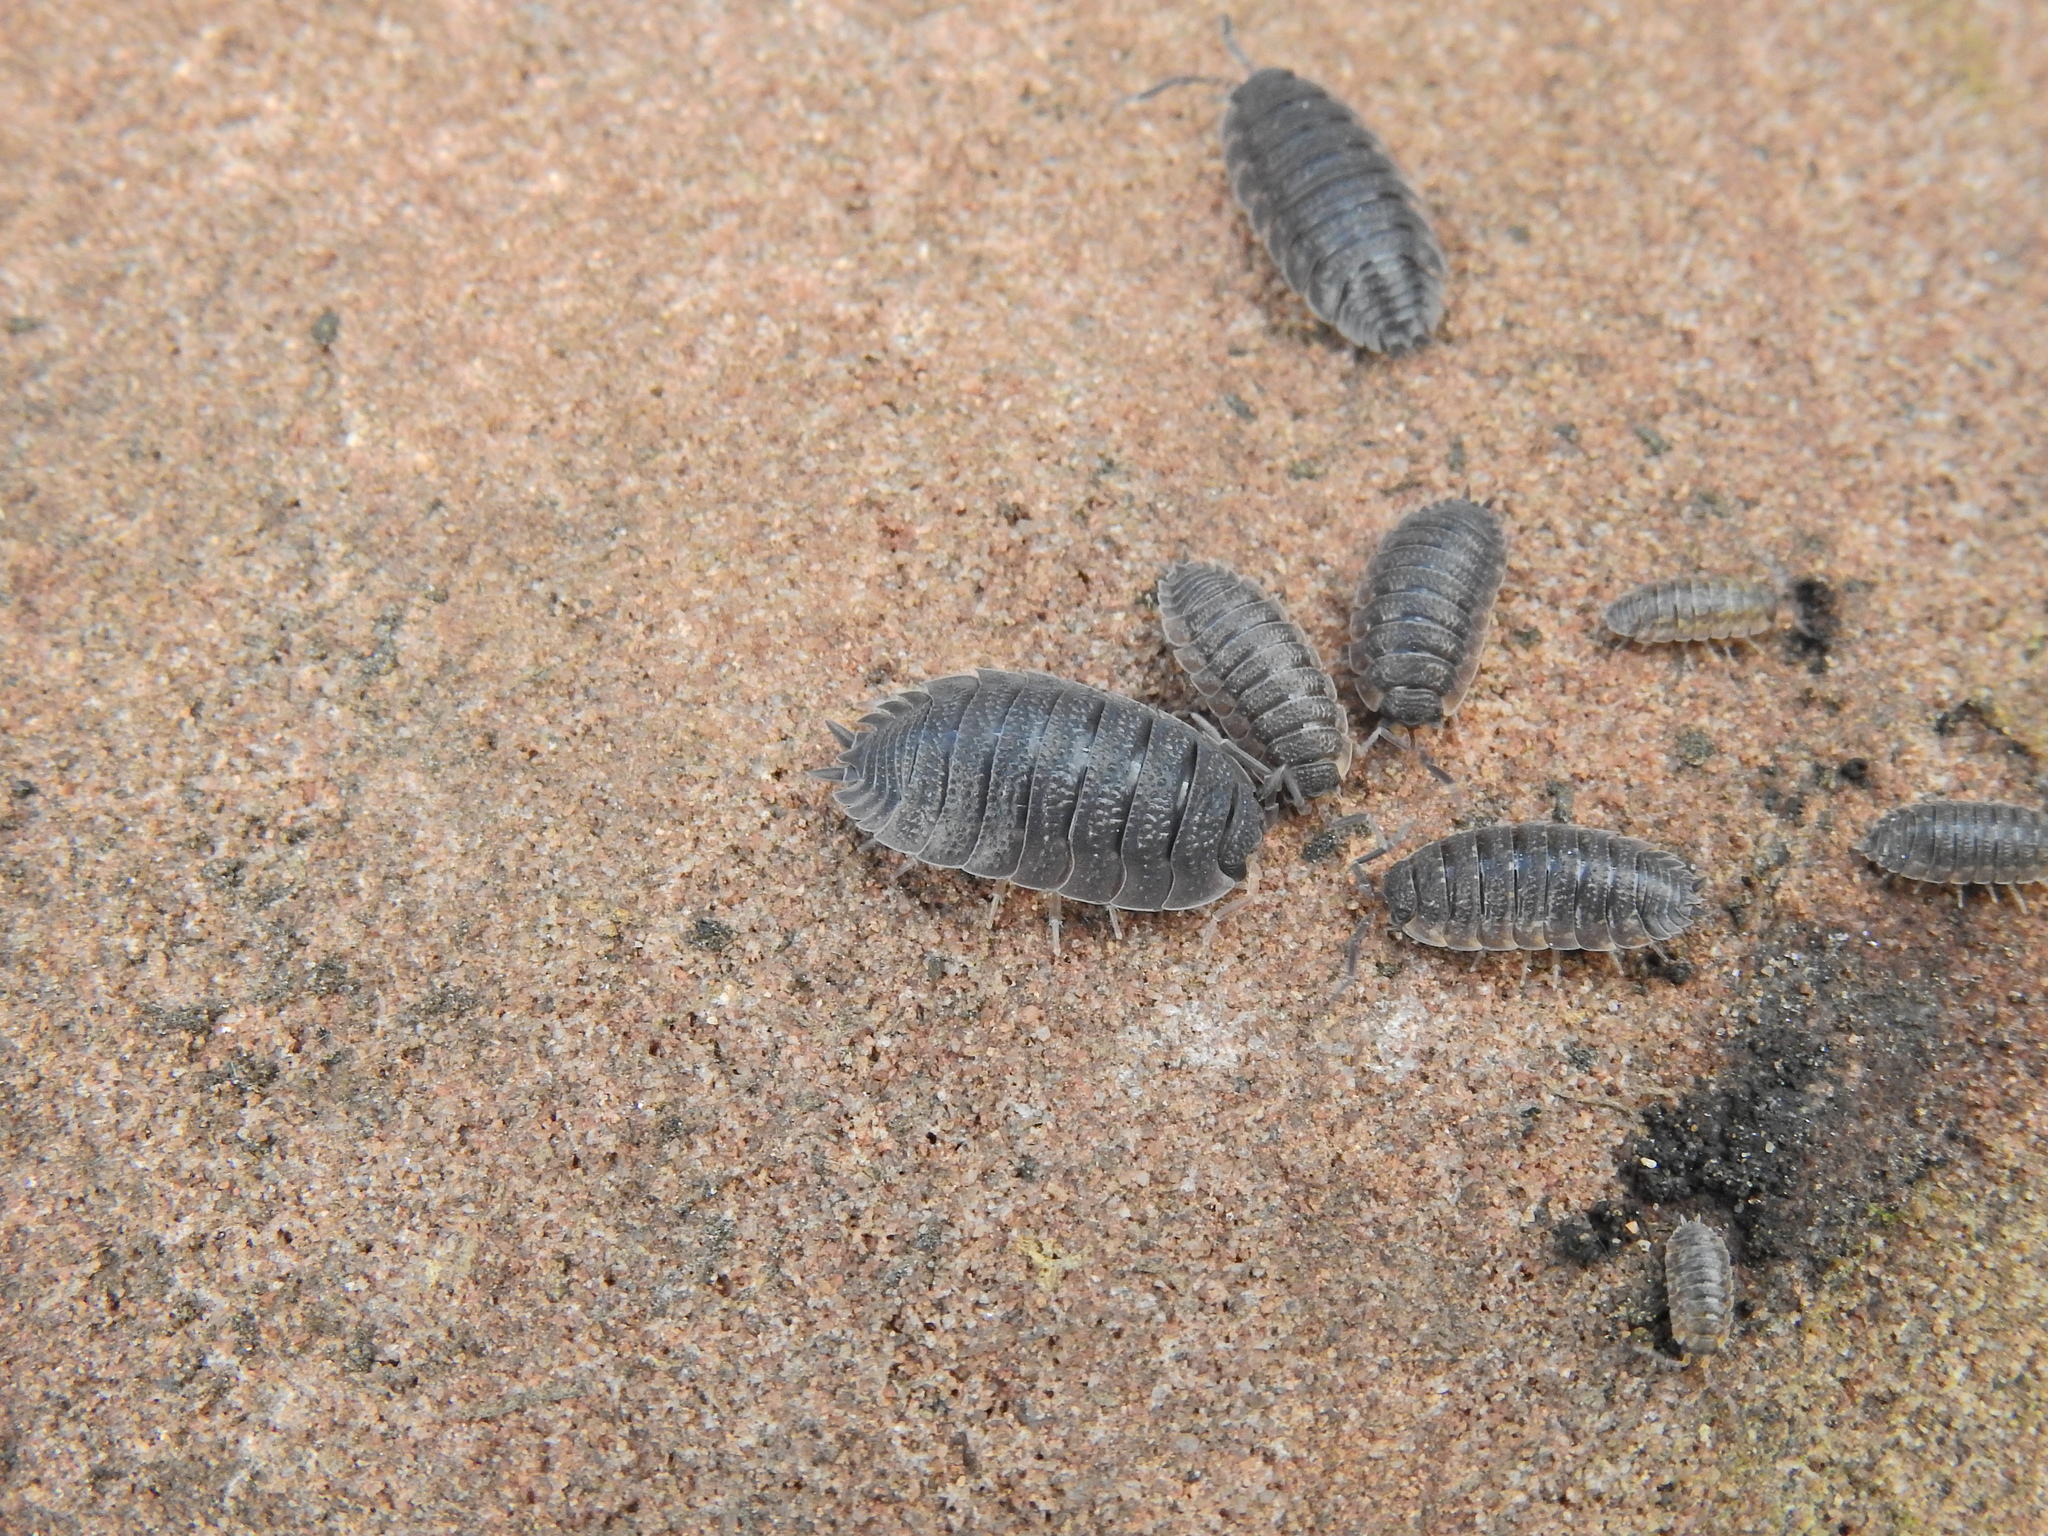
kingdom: Animalia
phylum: Arthropoda
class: Malacostraca
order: Isopoda
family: Porcellionidae
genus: Porcellio
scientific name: Porcellio scaber
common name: Common rough woodlouse
